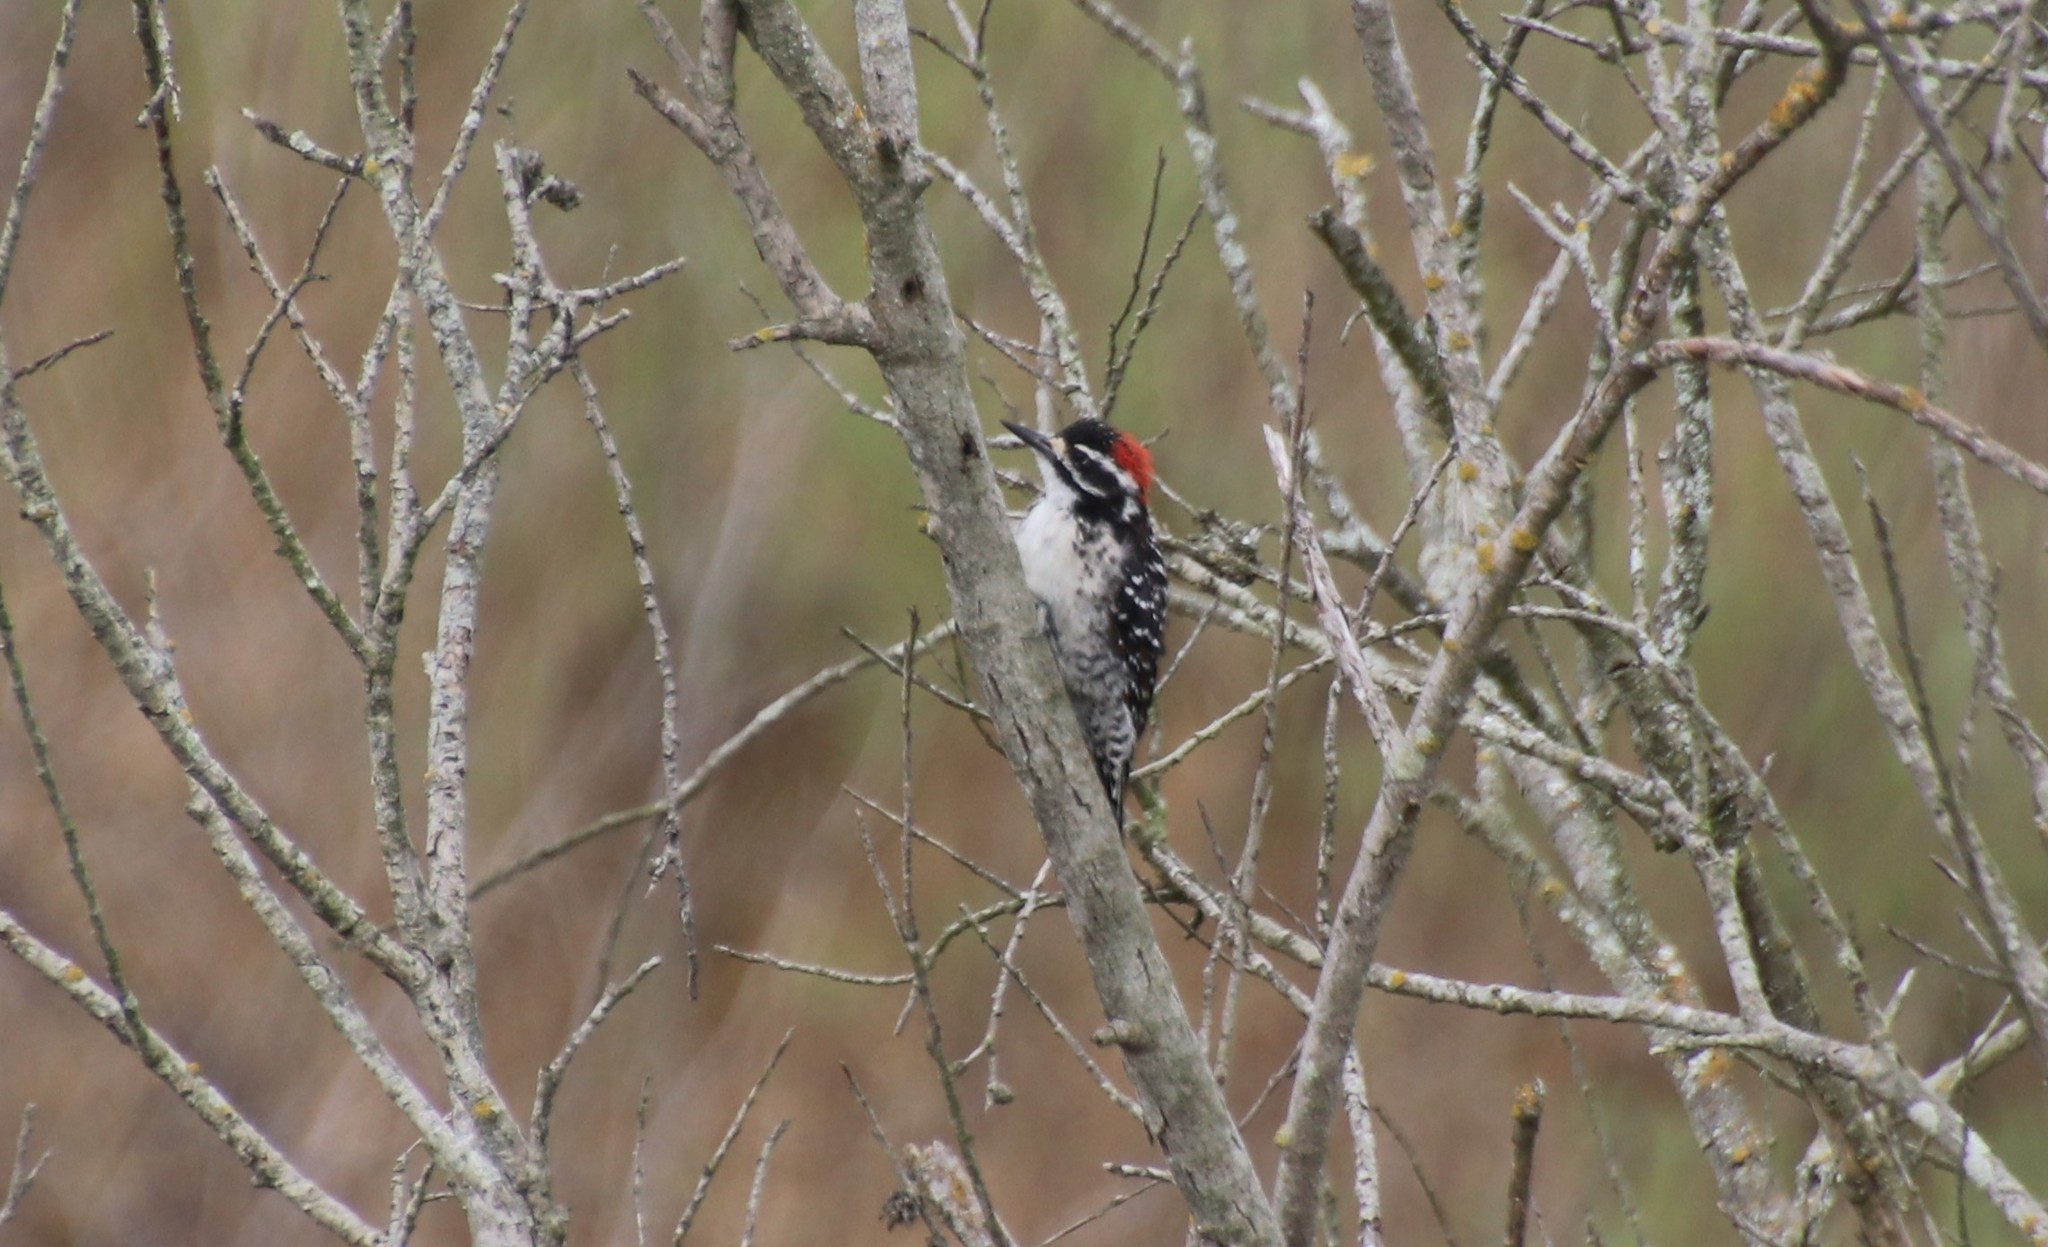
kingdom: Animalia
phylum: Chordata
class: Aves
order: Piciformes
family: Picidae
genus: Dryobates
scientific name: Dryobates nuttallii
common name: Nuttall's woodpecker
